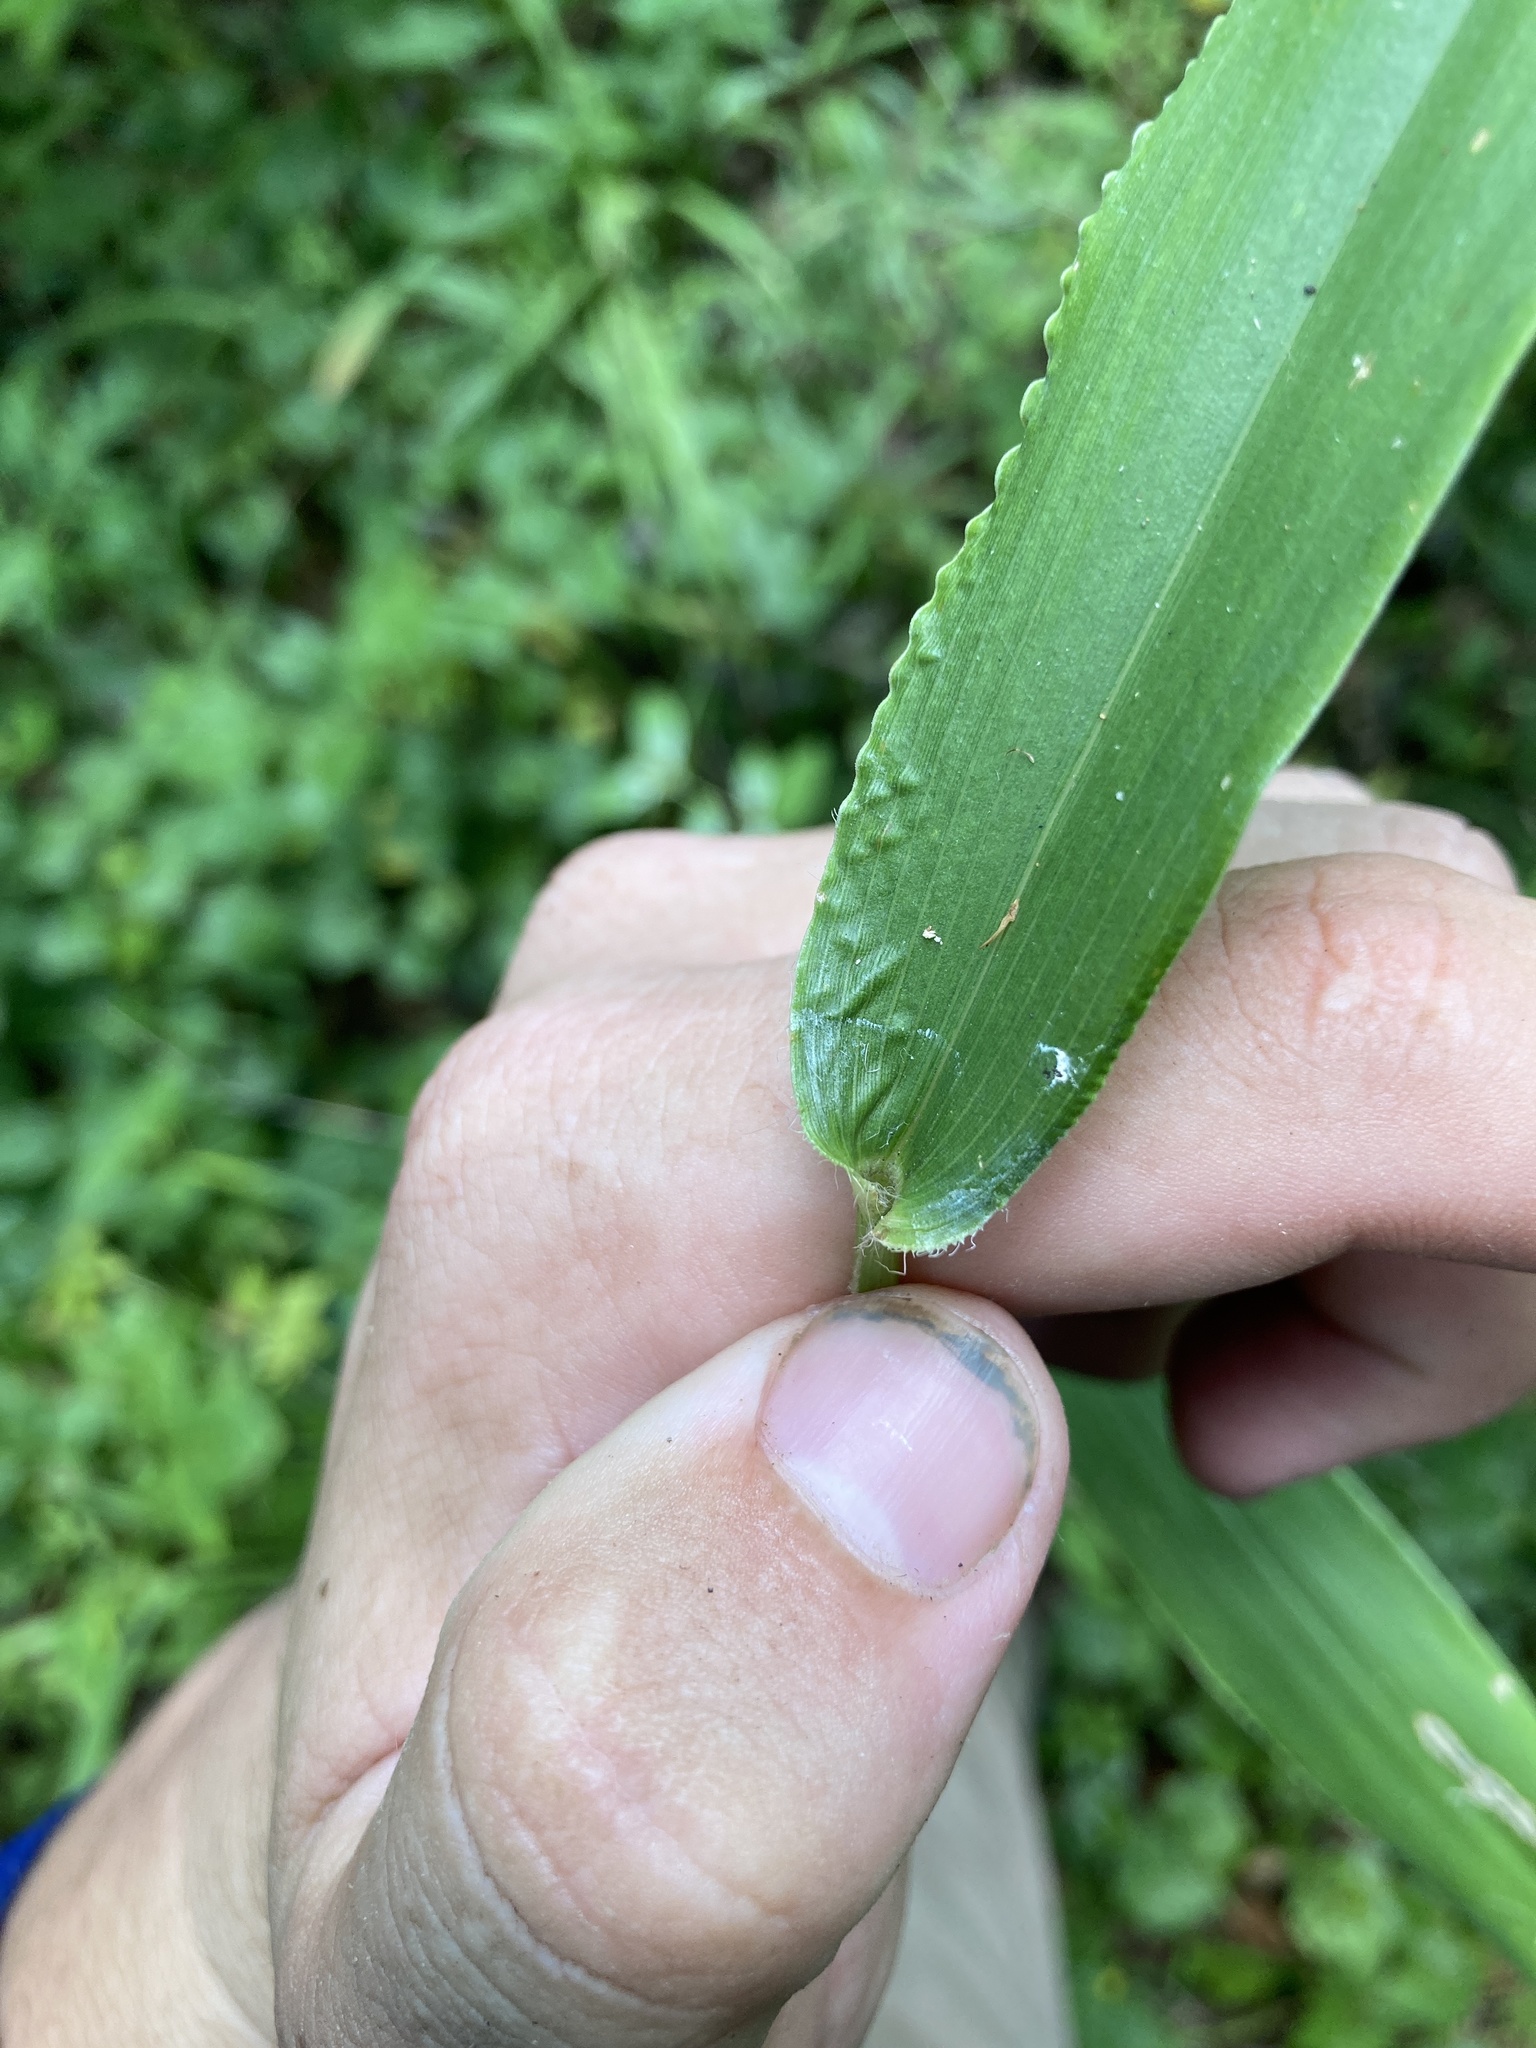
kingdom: Plantae
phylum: Tracheophyta
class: Liliopsida
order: Poales
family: Poaceae
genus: Dichanthelium
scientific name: Dichanthelium polyanthes
